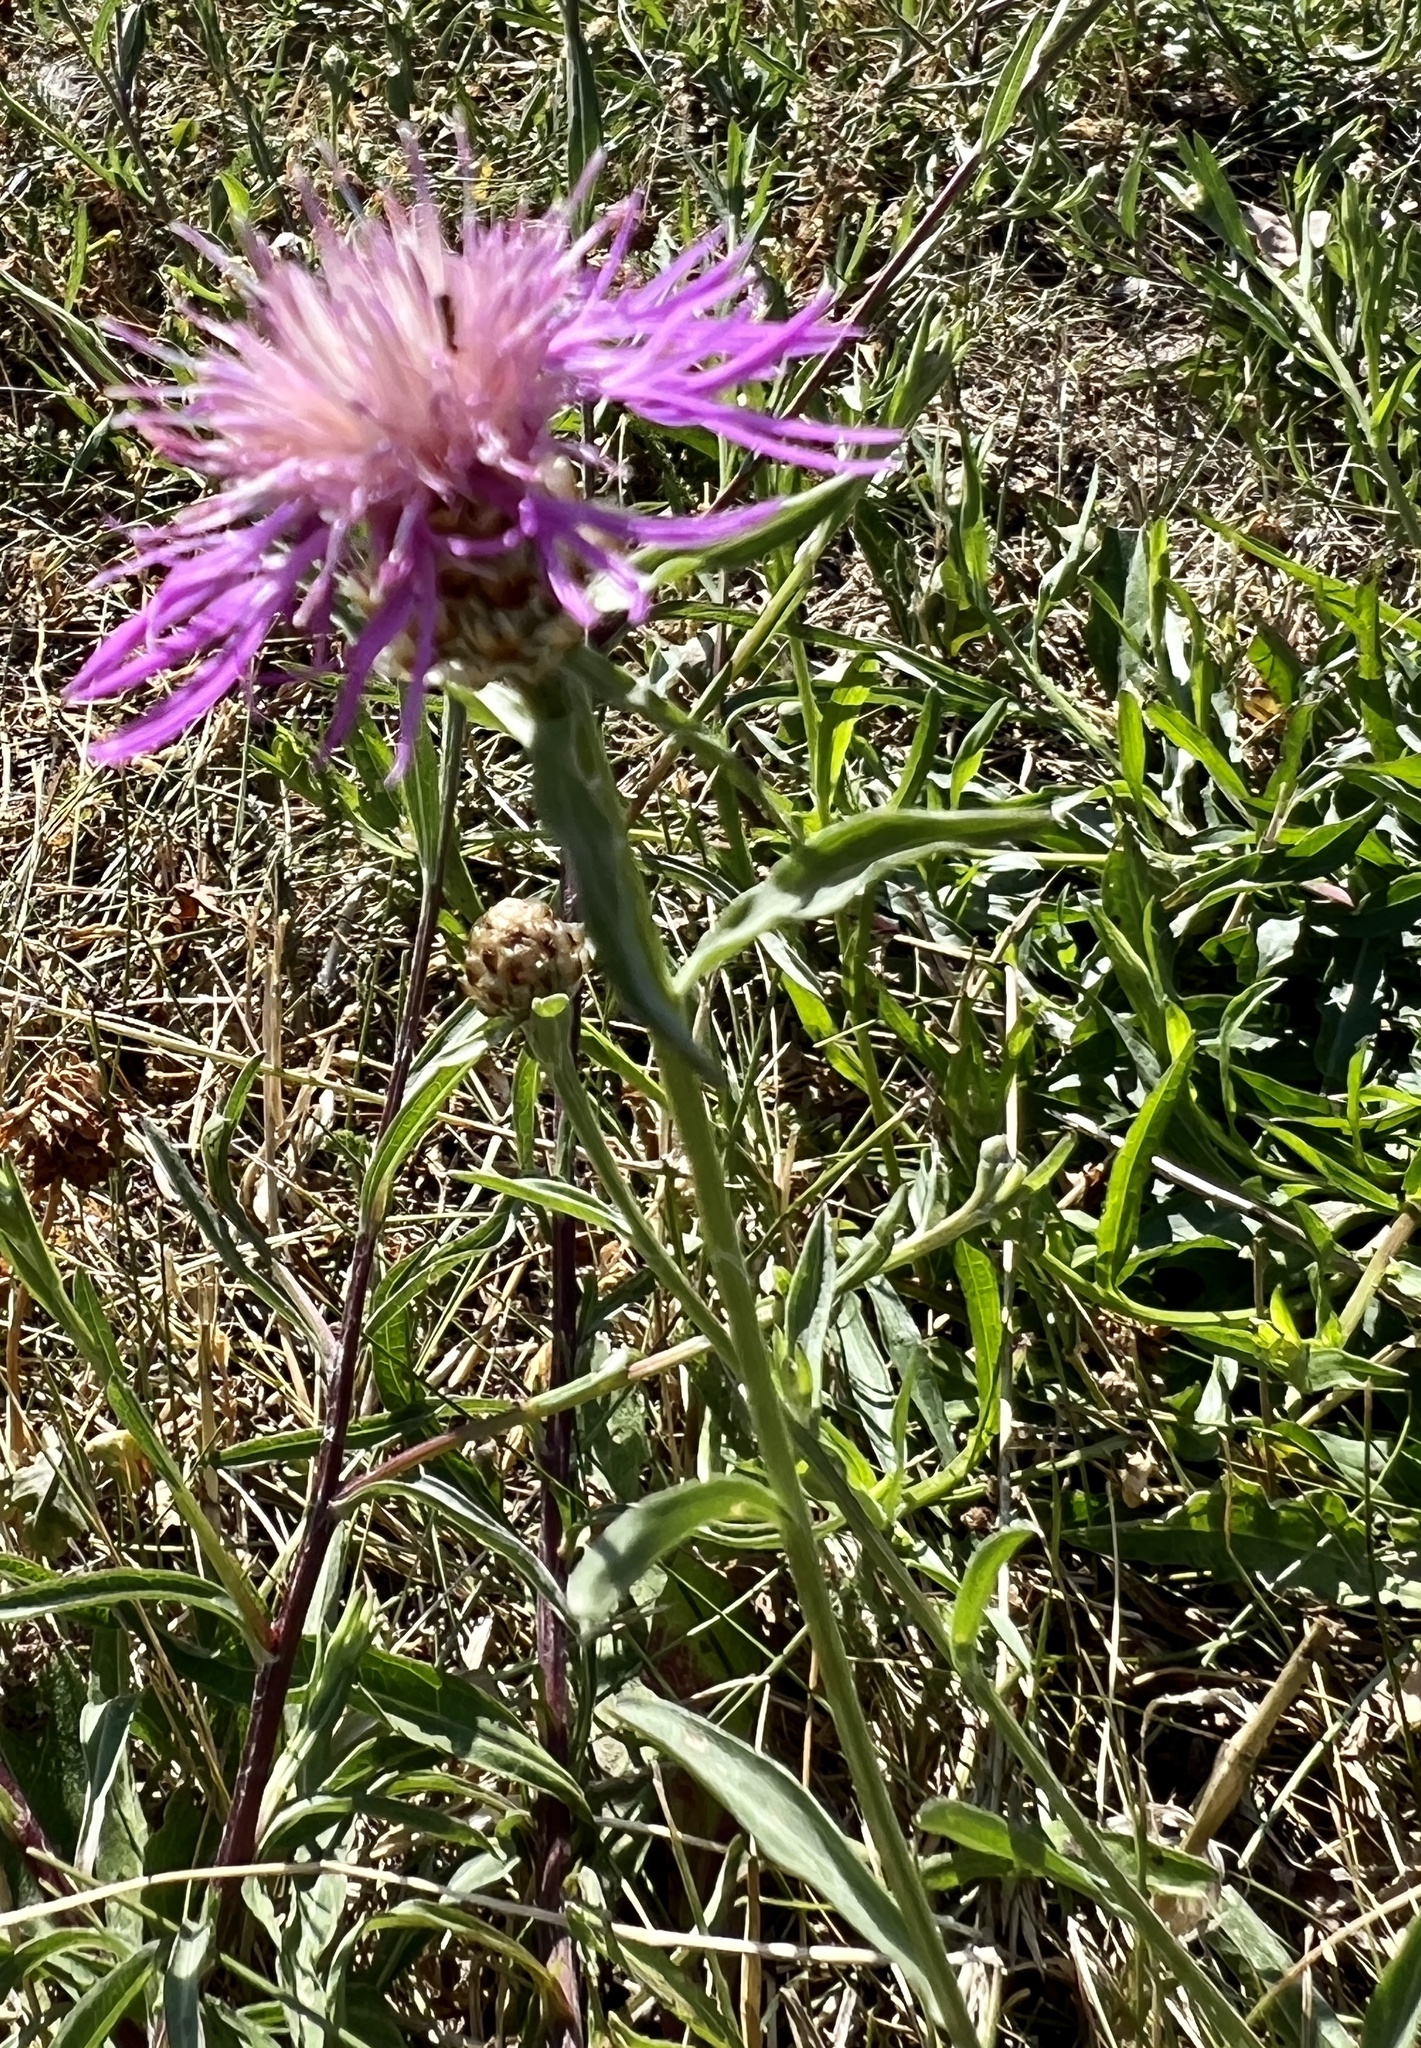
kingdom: Plantae
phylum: Tracheophyta
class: Magnoliopsida
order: Asterales
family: Asteraceae
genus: Centaurea
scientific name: Centaurea jacea
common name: Brown knapweed
